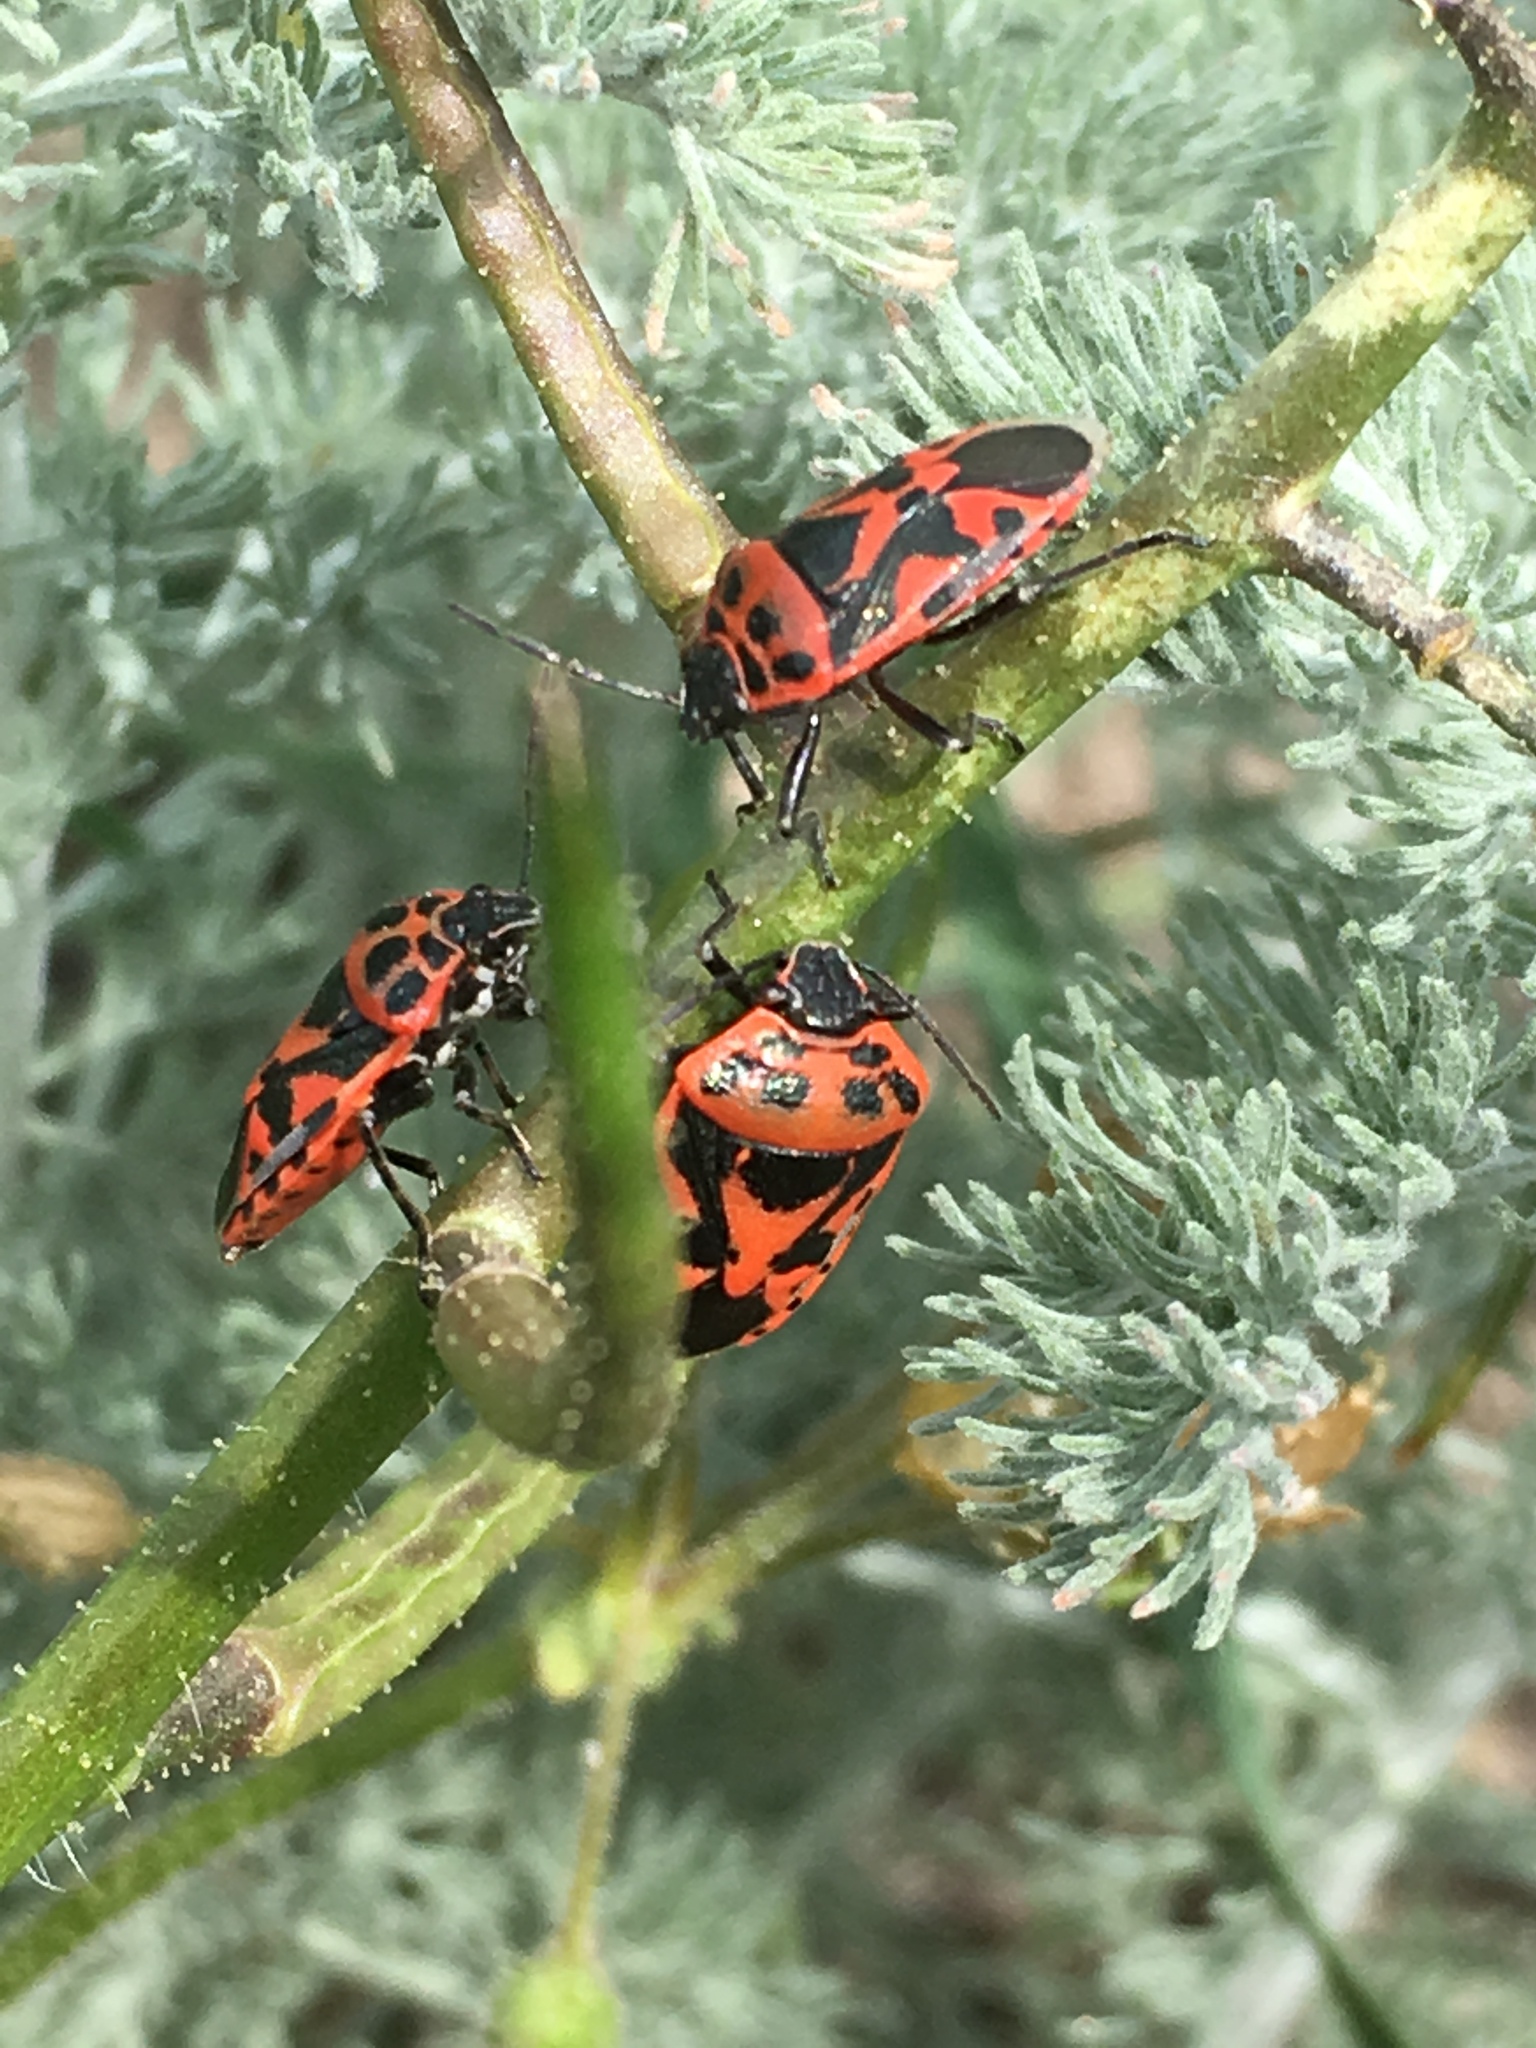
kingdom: Animalia
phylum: Arthropoda
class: Insecta
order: Hemiptera
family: Pentatomidae
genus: Eurydema
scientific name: Eurydema ornata
